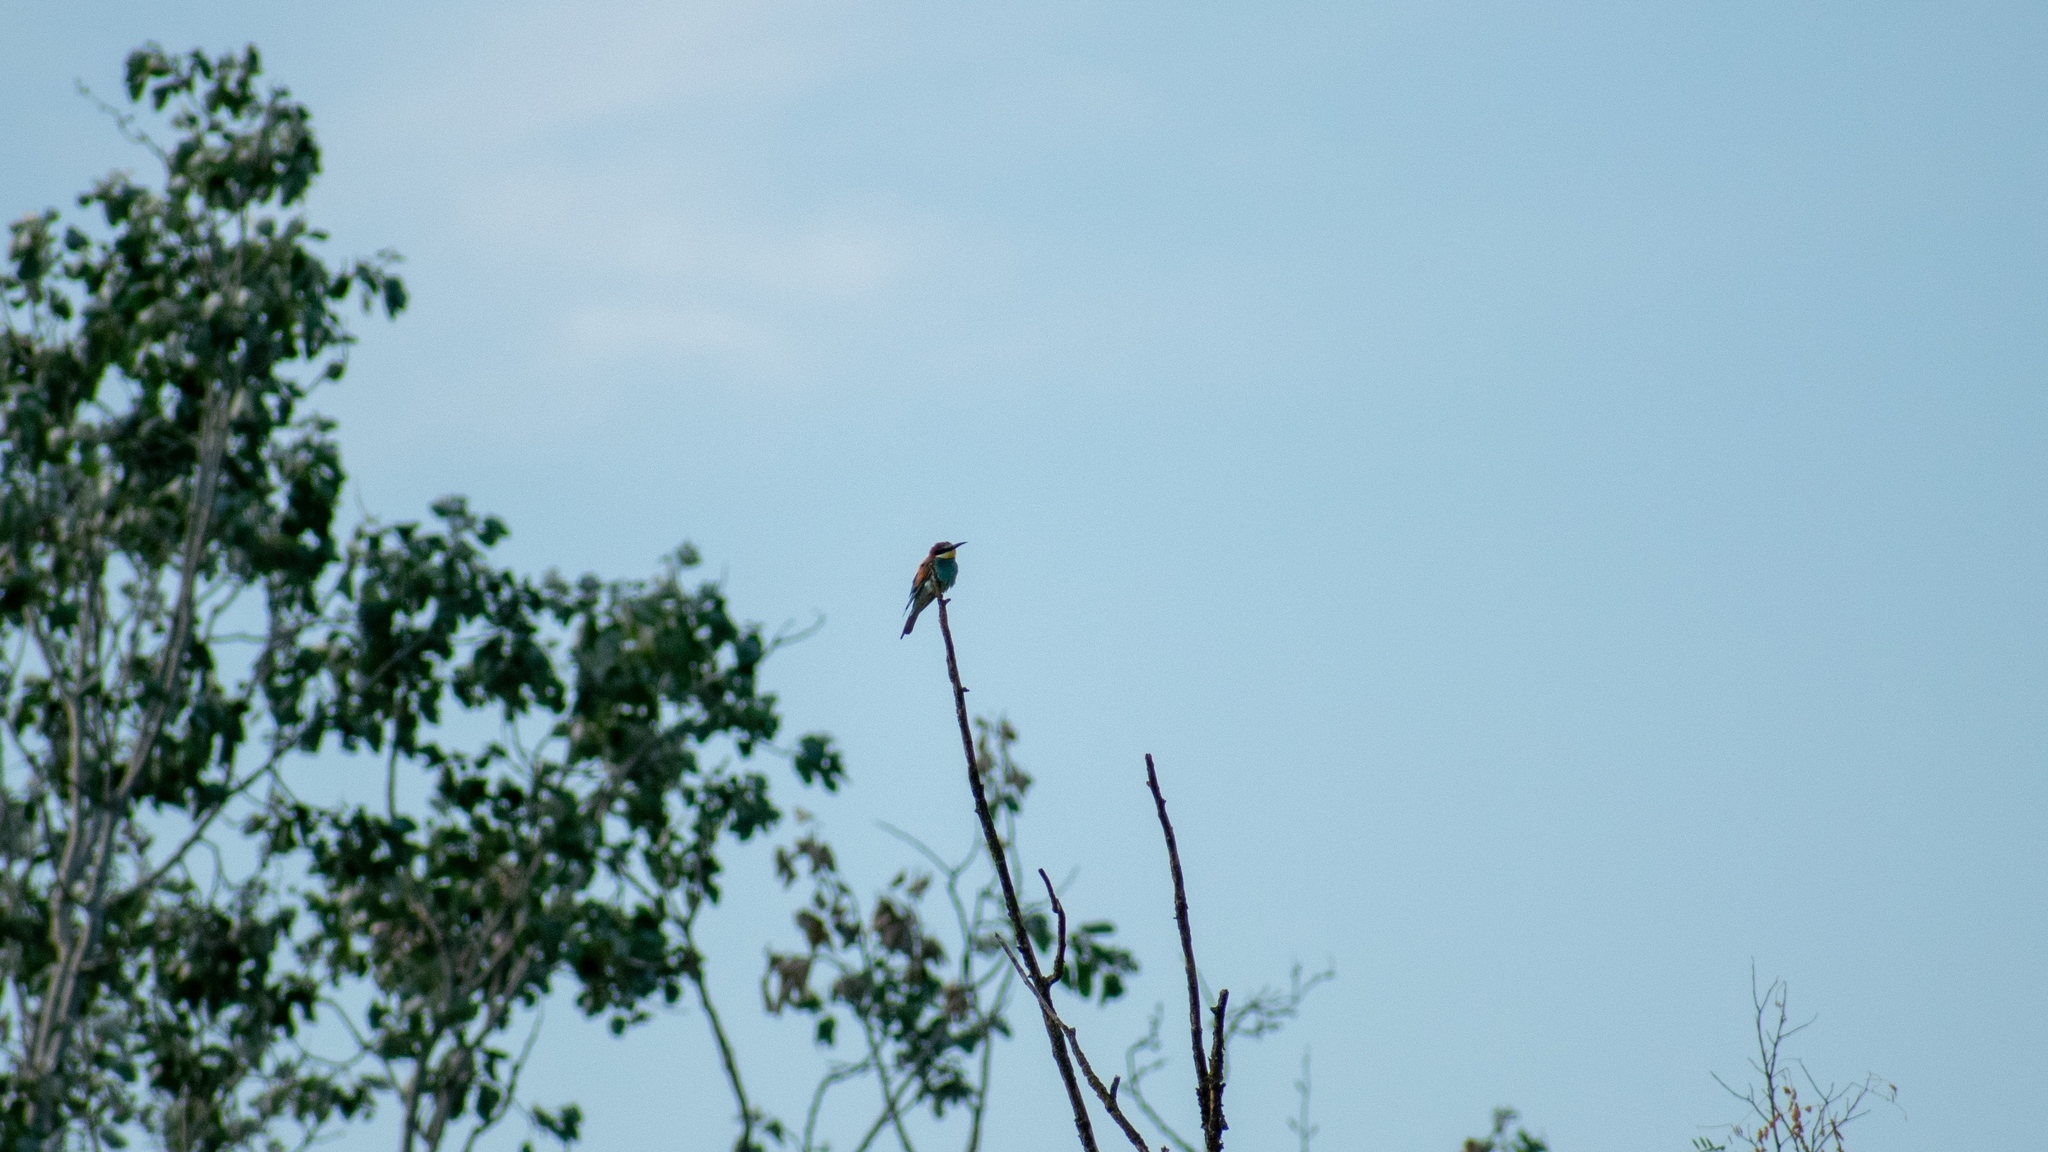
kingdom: Animalia
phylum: Chordata
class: Aves
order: Coraciiformes
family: Meropidae
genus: Merops
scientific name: Merops apiaster
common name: European bee-eater
